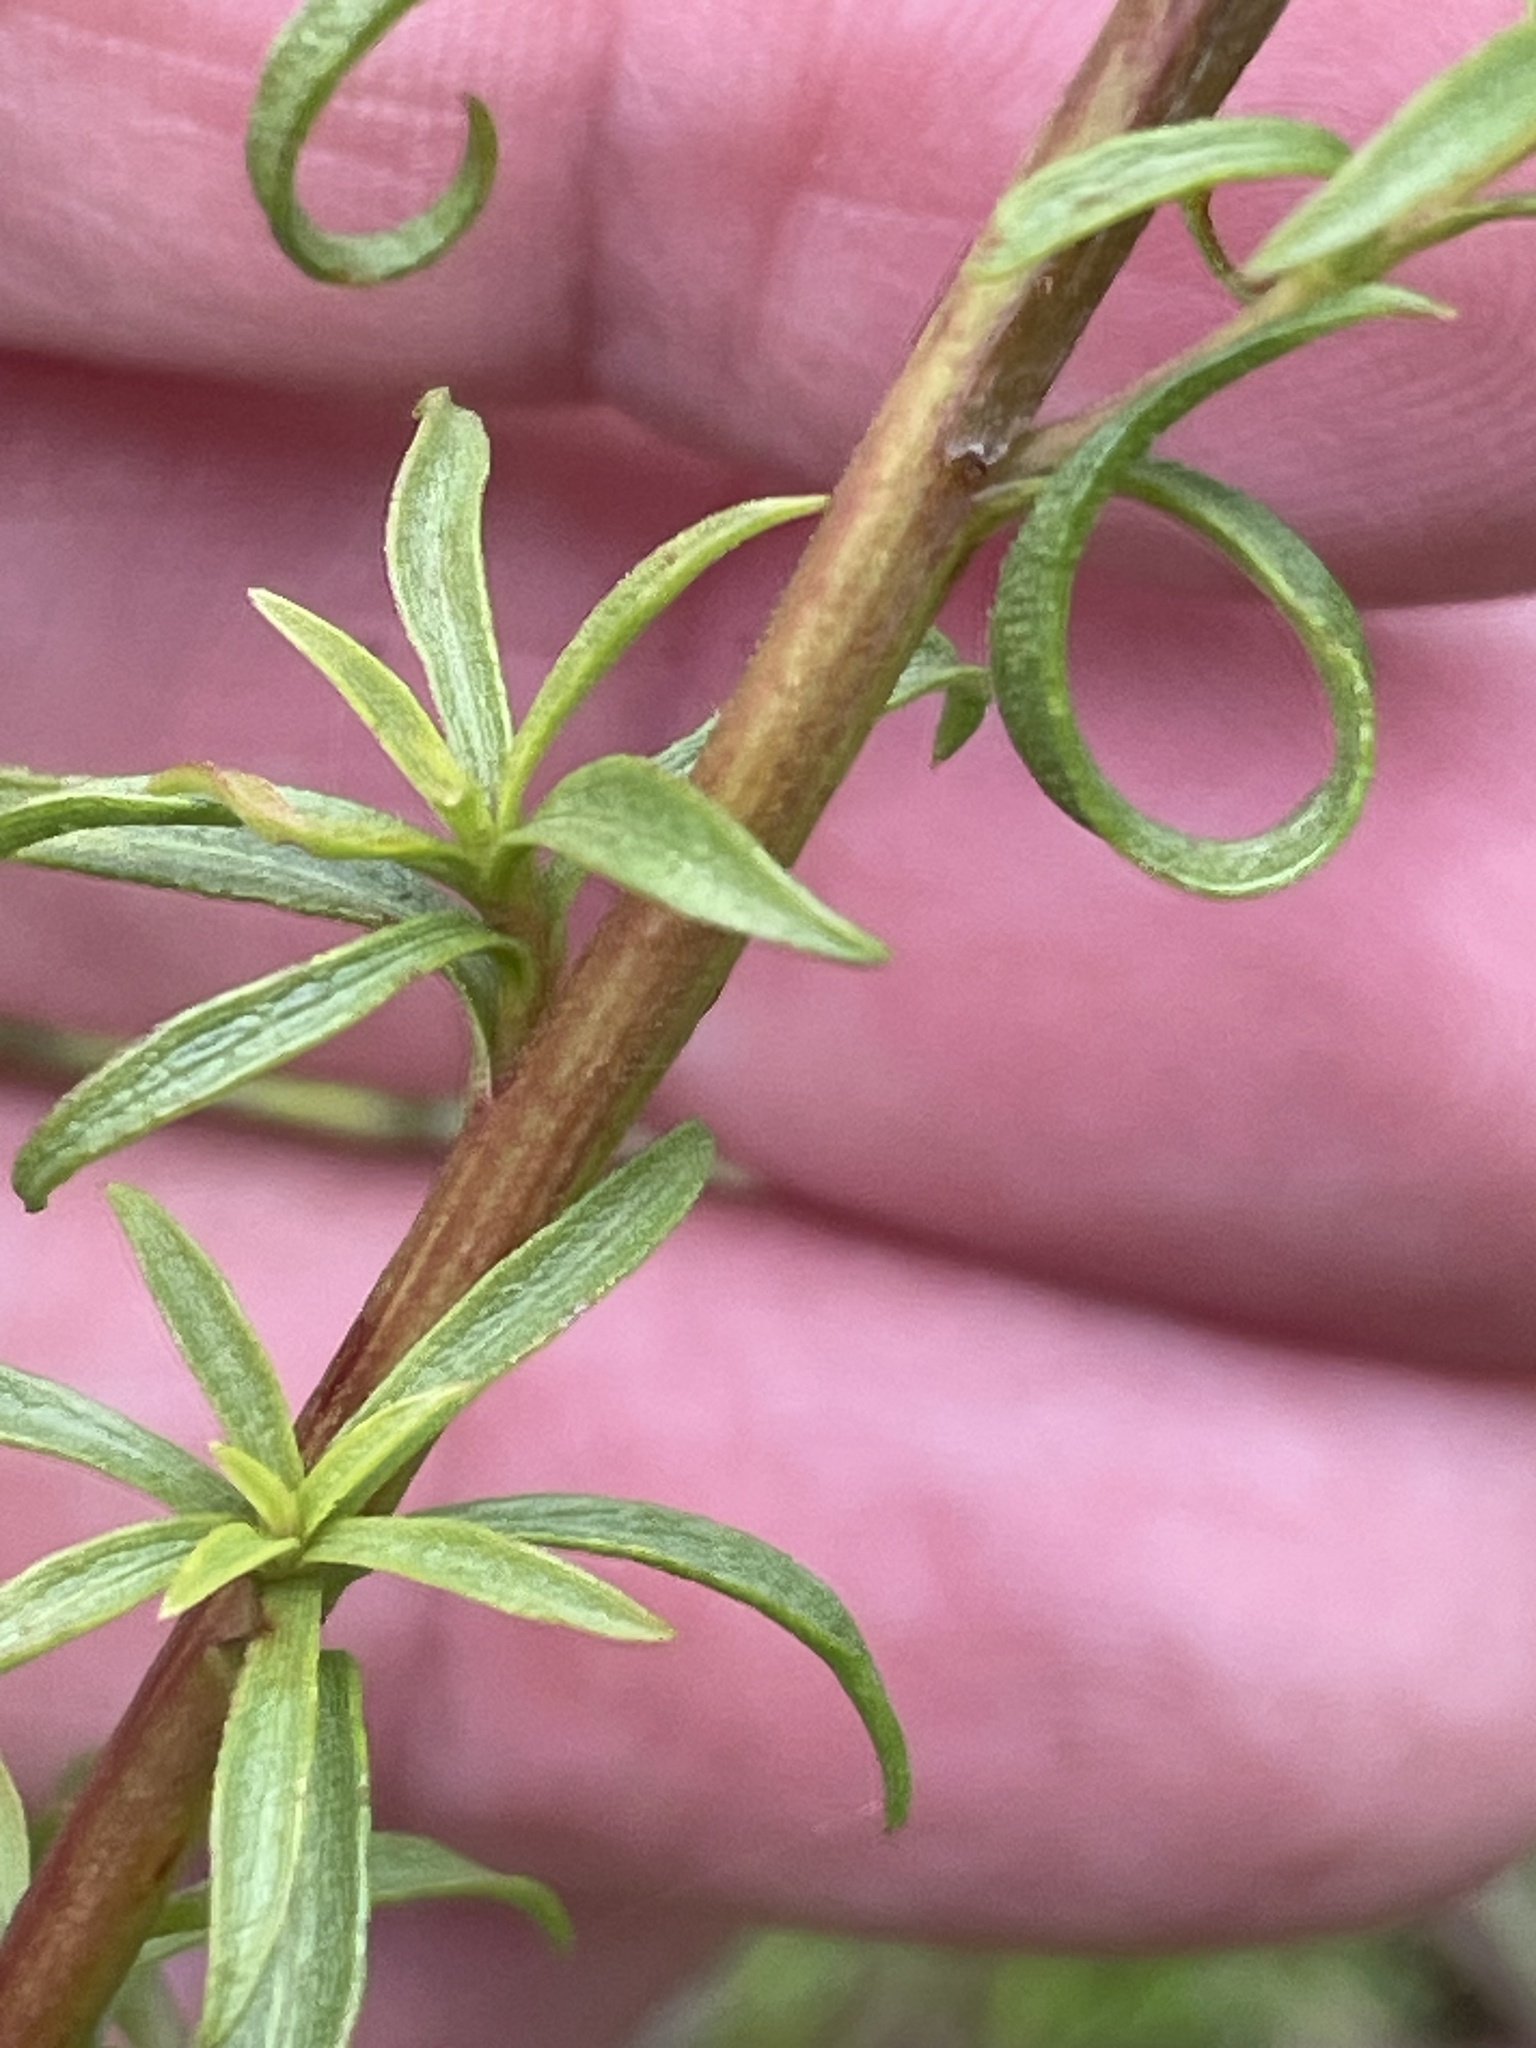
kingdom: Plantae
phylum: Tracheophyta
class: Magnoliopsida
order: Asterales
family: Asteraceae
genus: Solidago
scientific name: Solidago pinetorum
